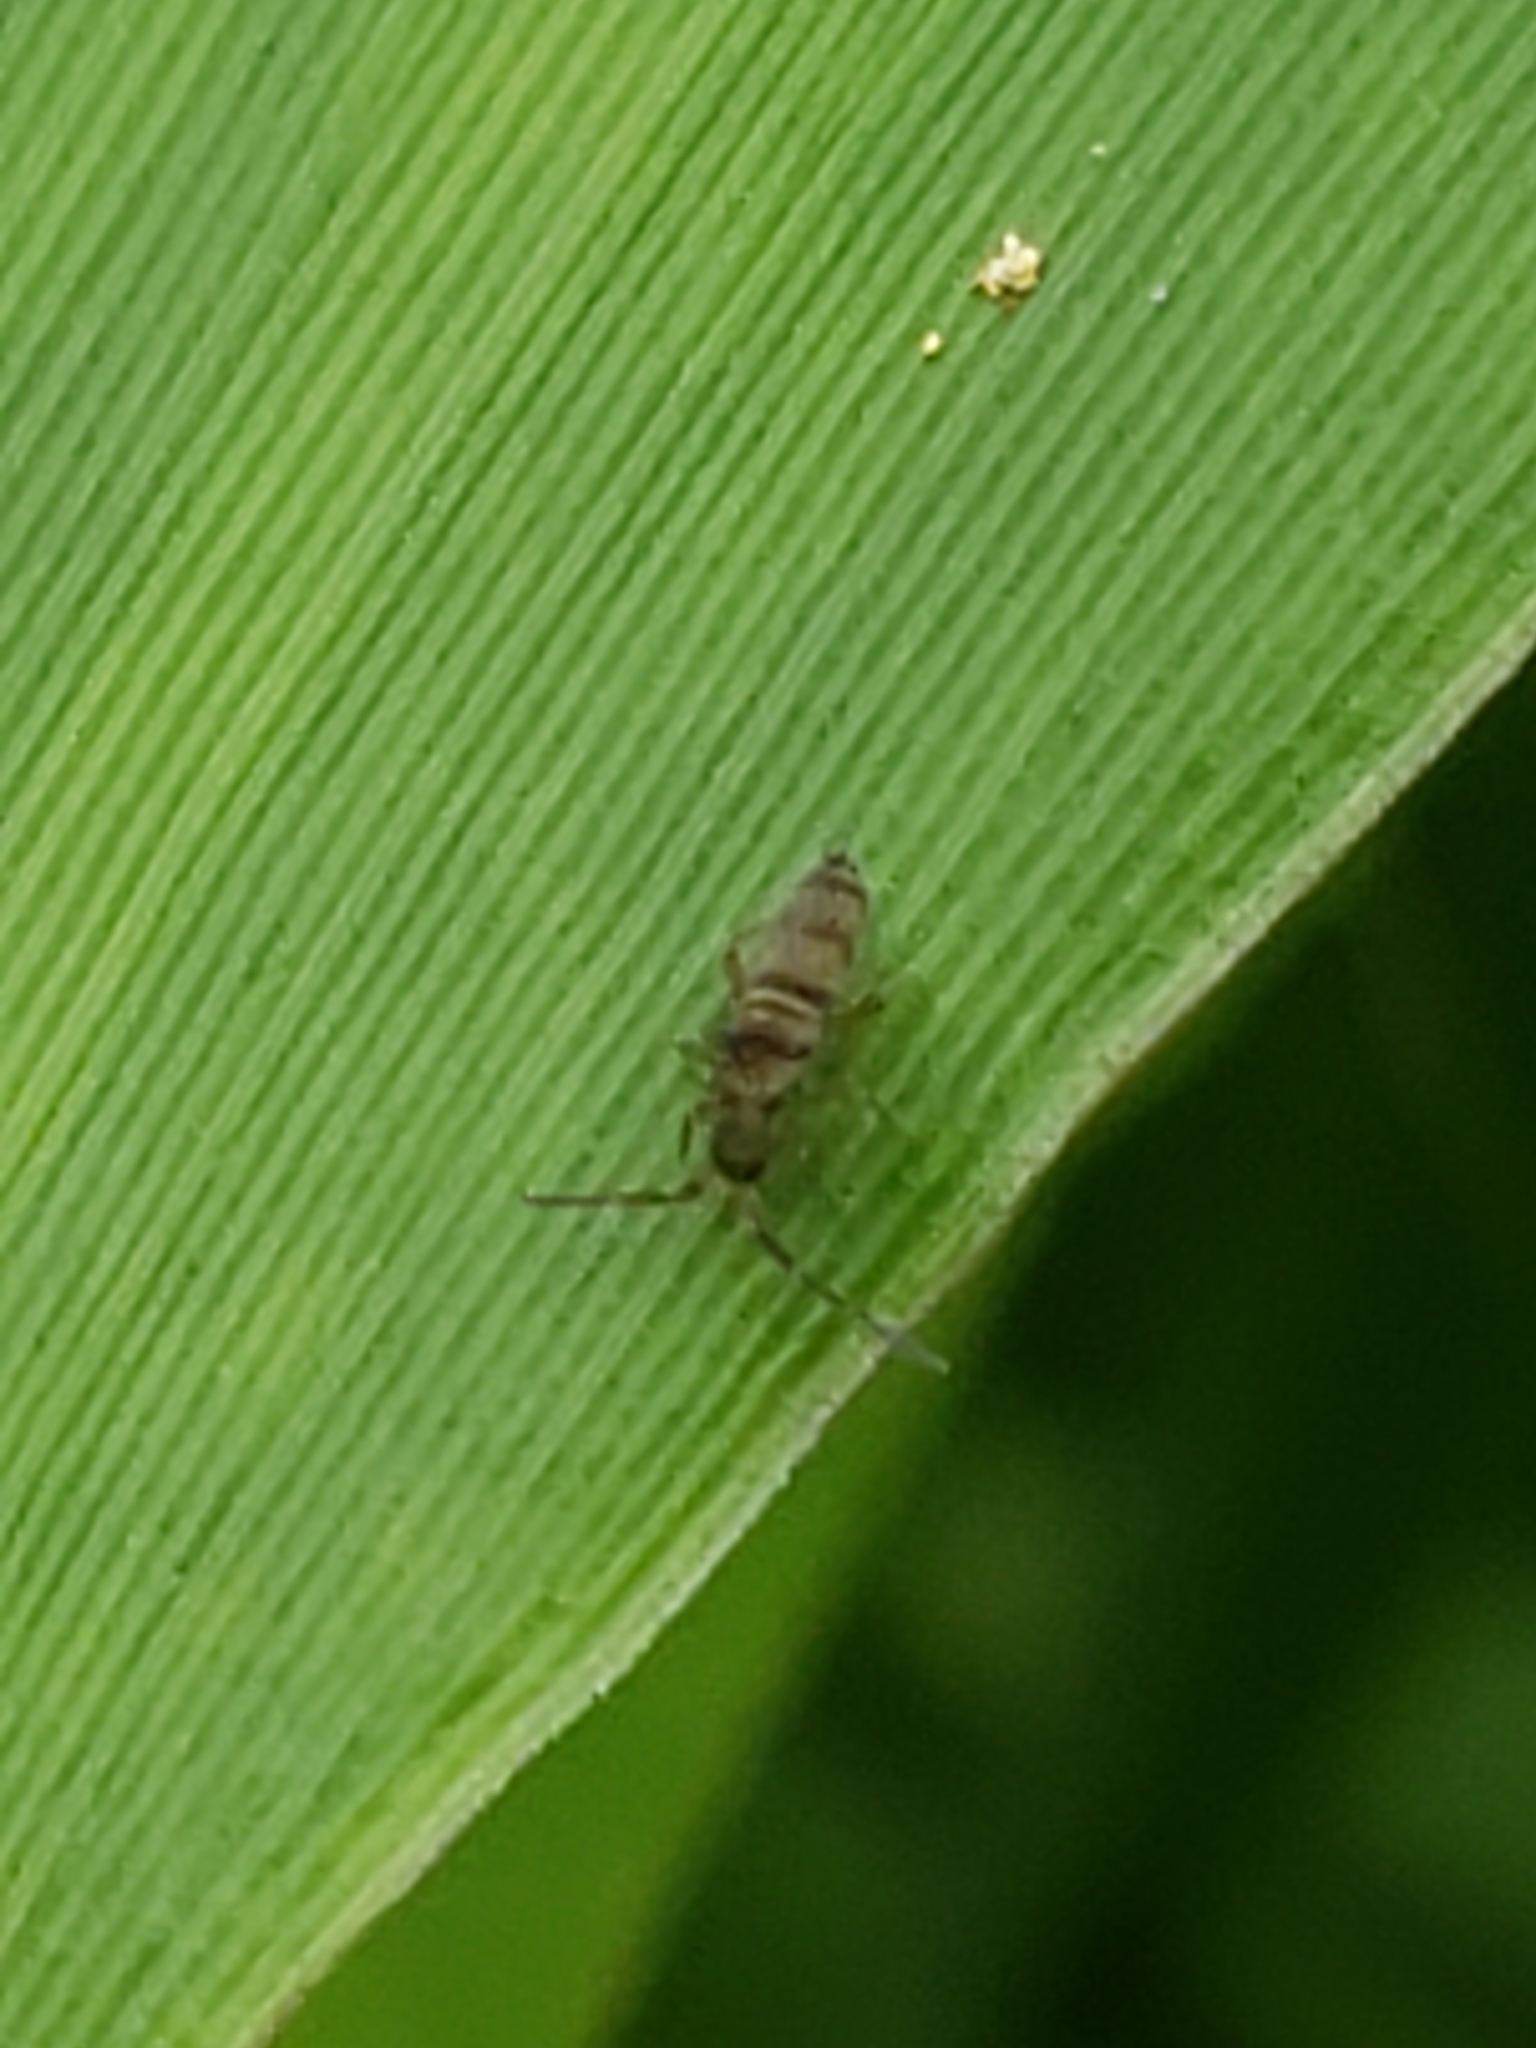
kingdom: Animalia
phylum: Arthropoda
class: Collembola
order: Entomobryomorpha
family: Entomobryidae
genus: Homidia
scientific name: Homidia sauteri
